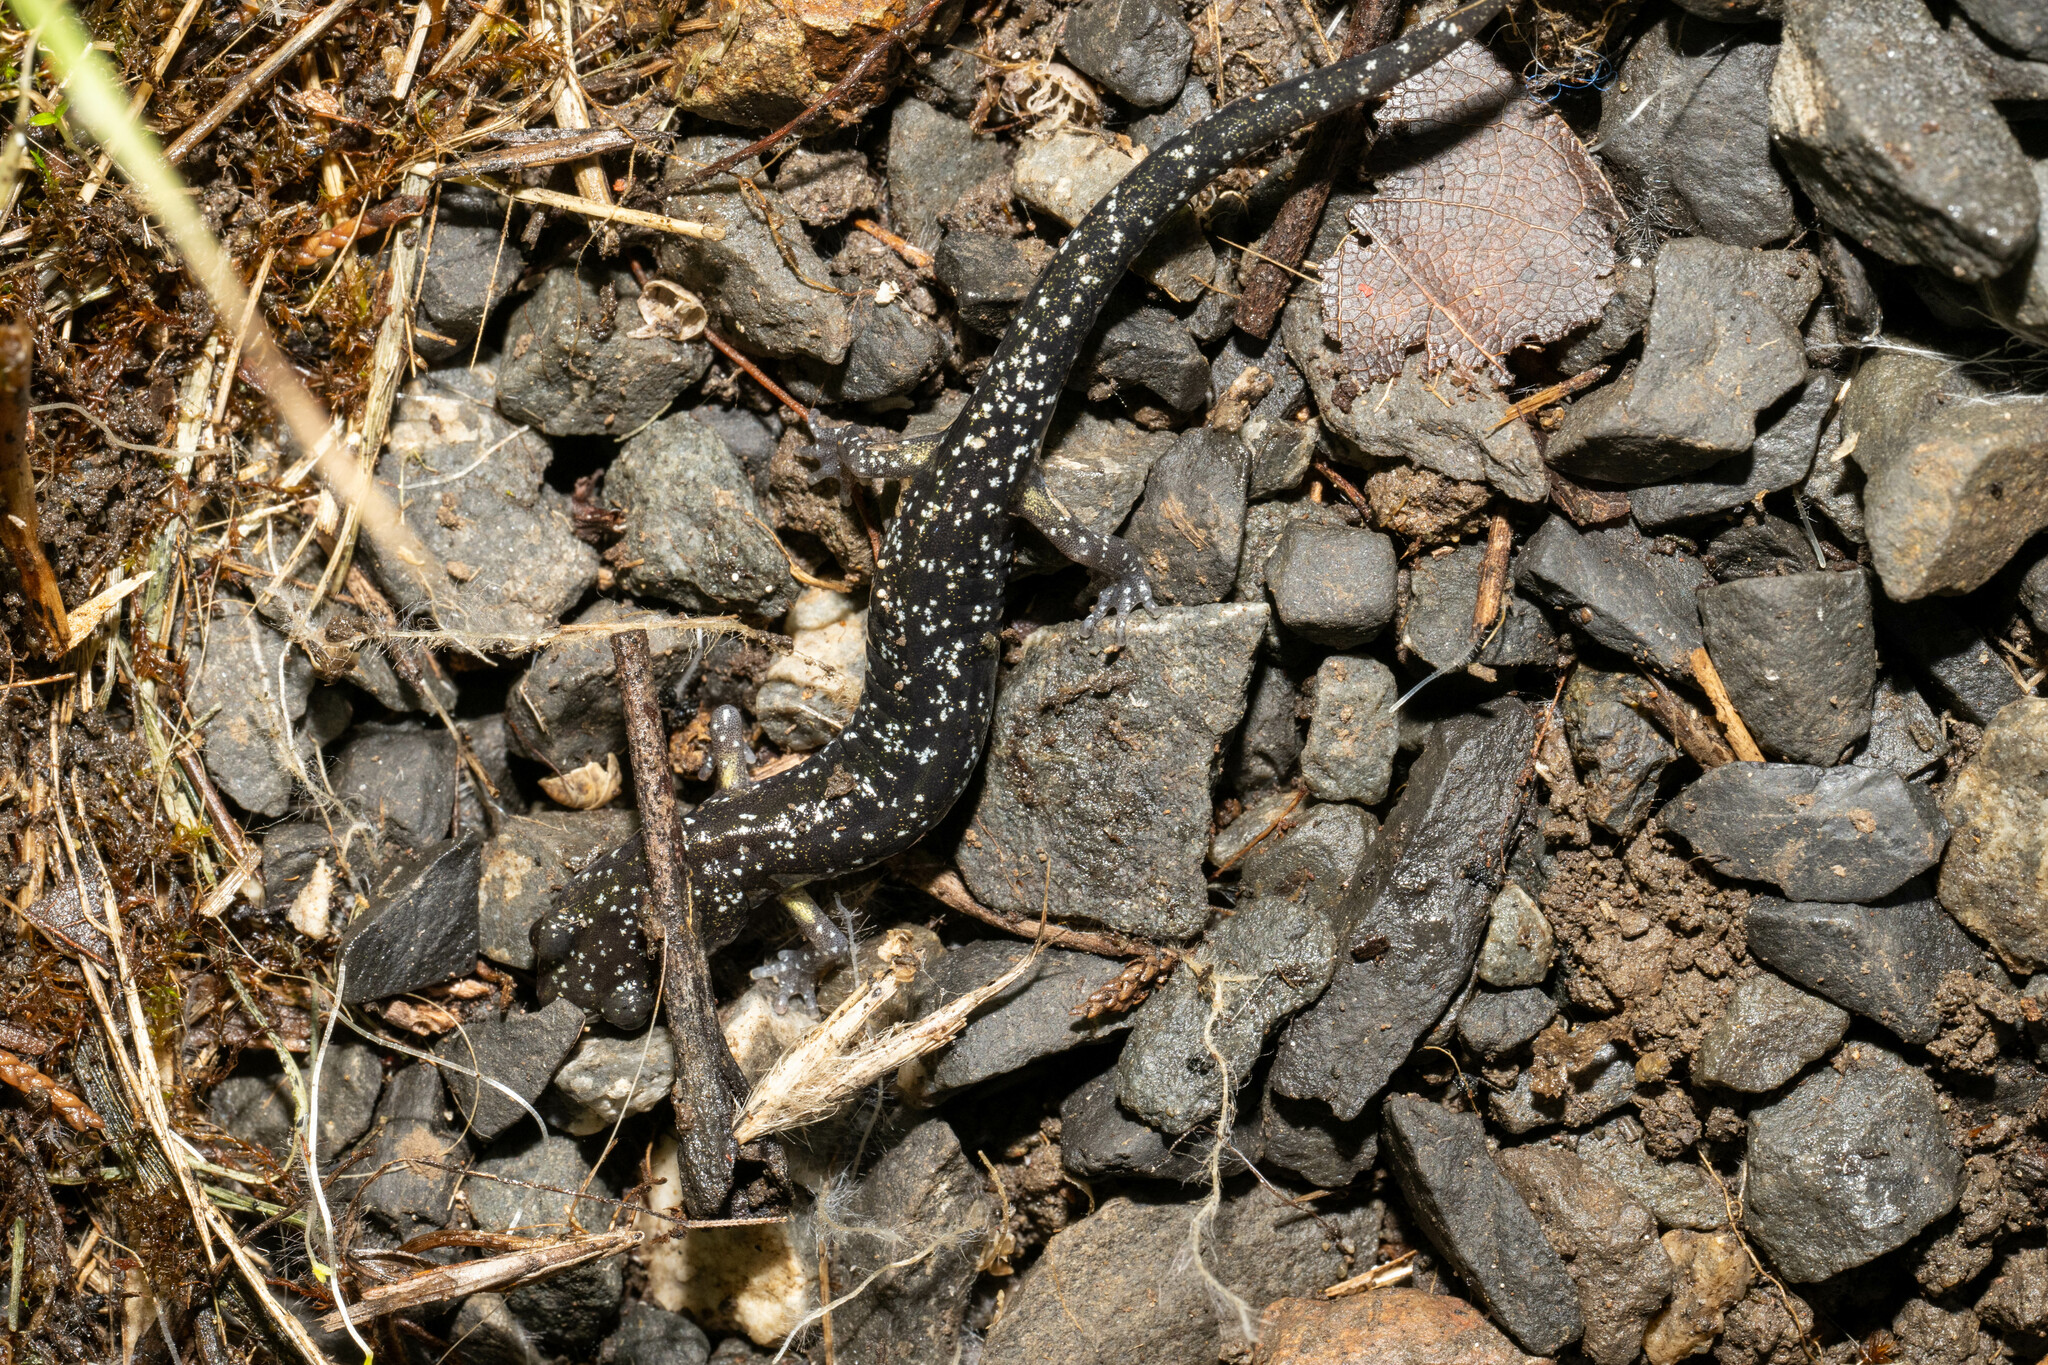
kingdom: Animalia
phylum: Chordata
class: Amphibia
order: Caudata
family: Plethodontidae
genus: Aneides
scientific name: Aneides flavipunctatus
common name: Black salamander
